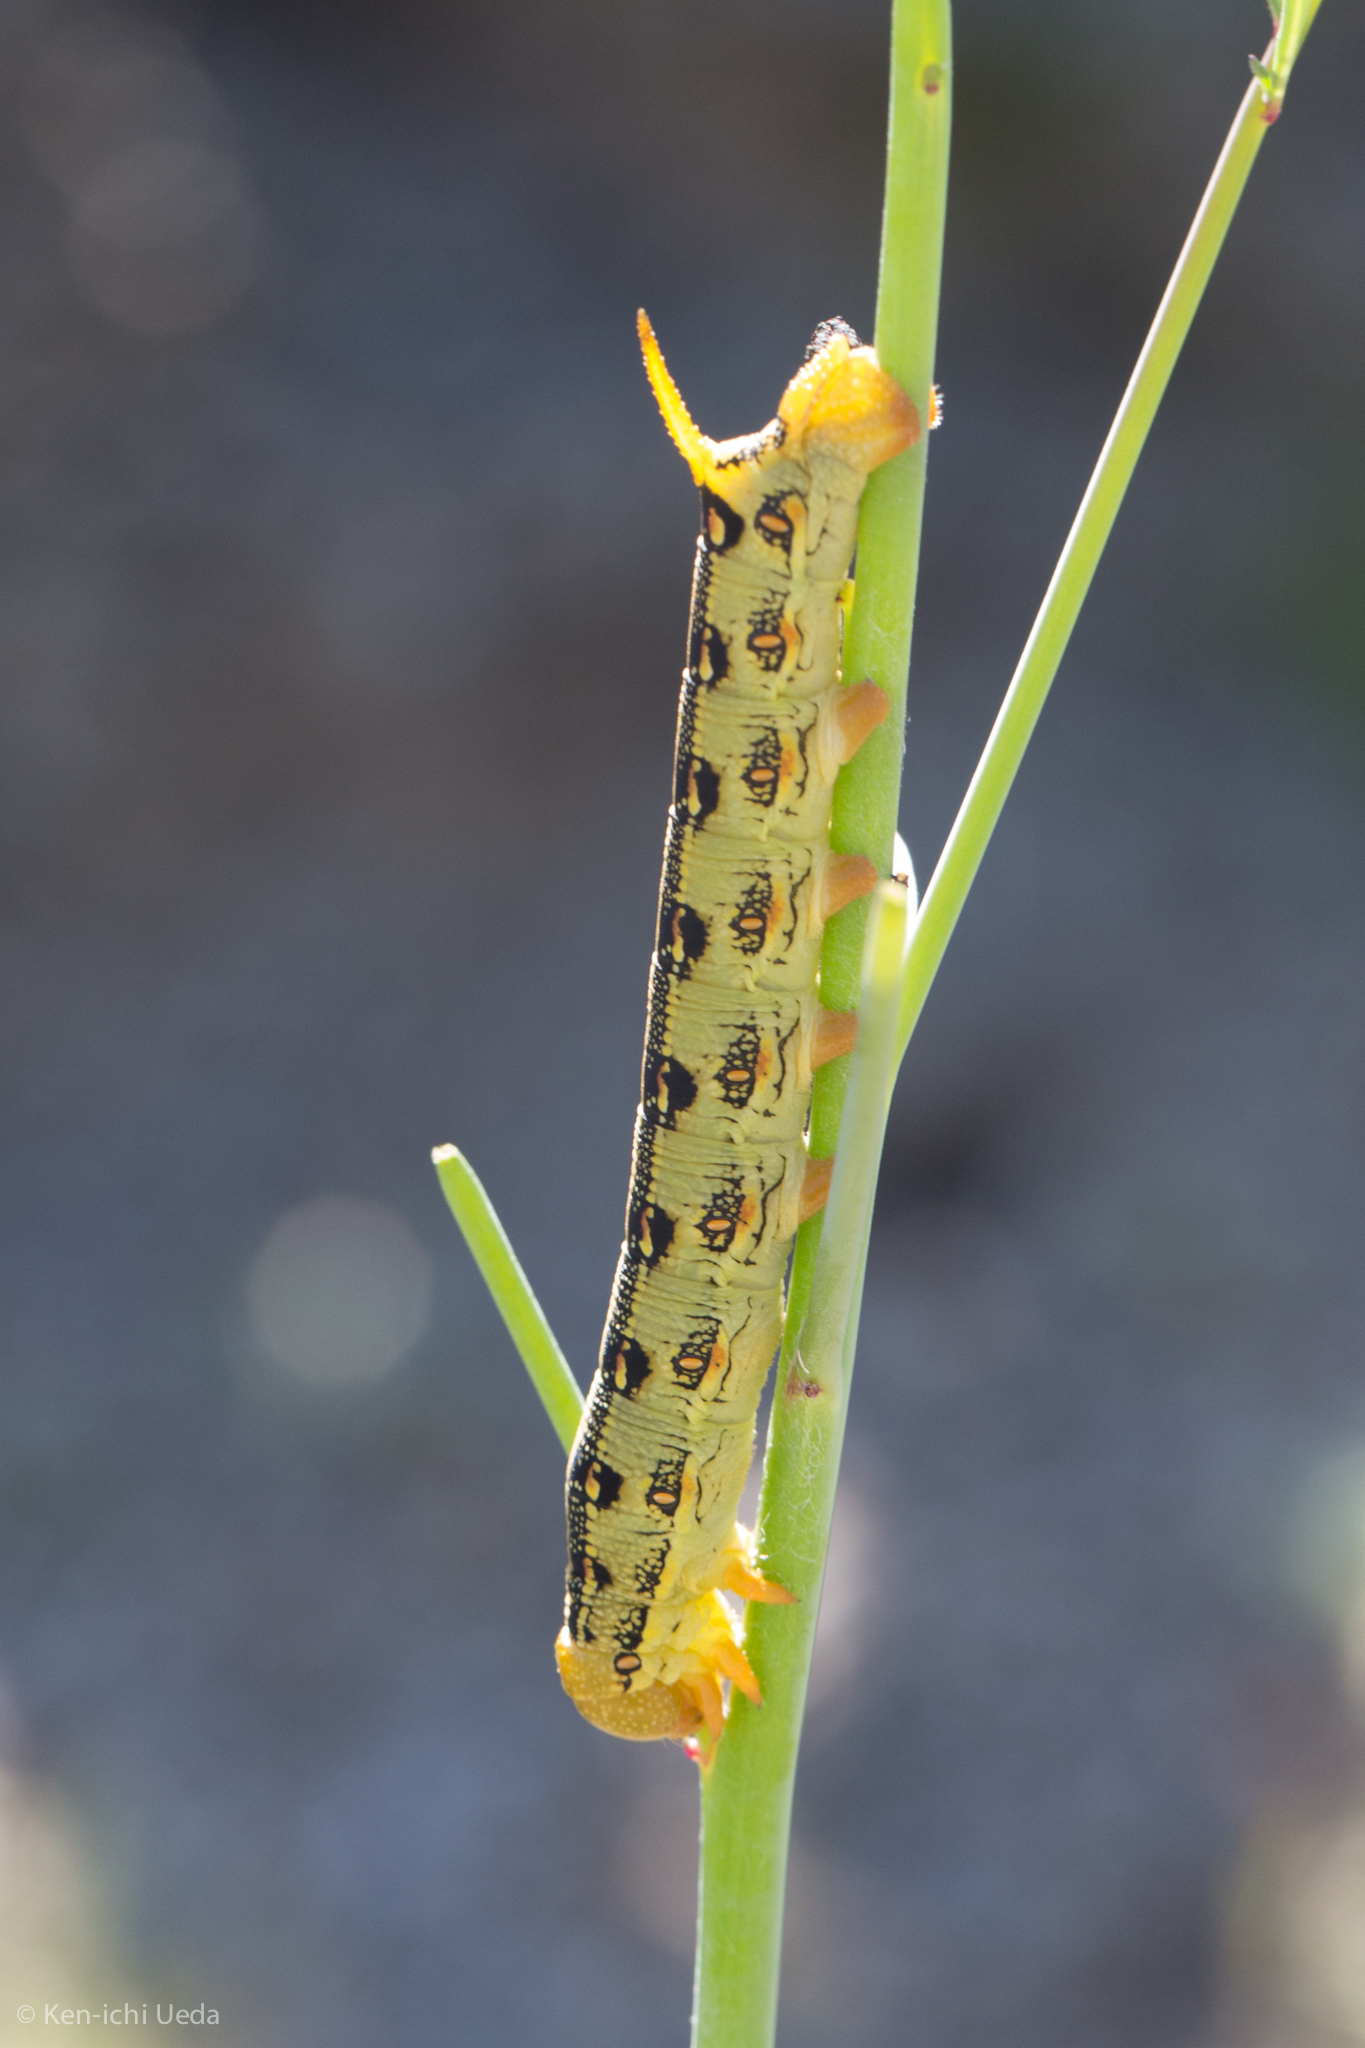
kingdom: Animalia
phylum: Arthropoda
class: Insecta
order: Lepidoptera
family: Sphingidae
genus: Hyles
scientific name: Hyles lineata
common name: White-lined sphinx
